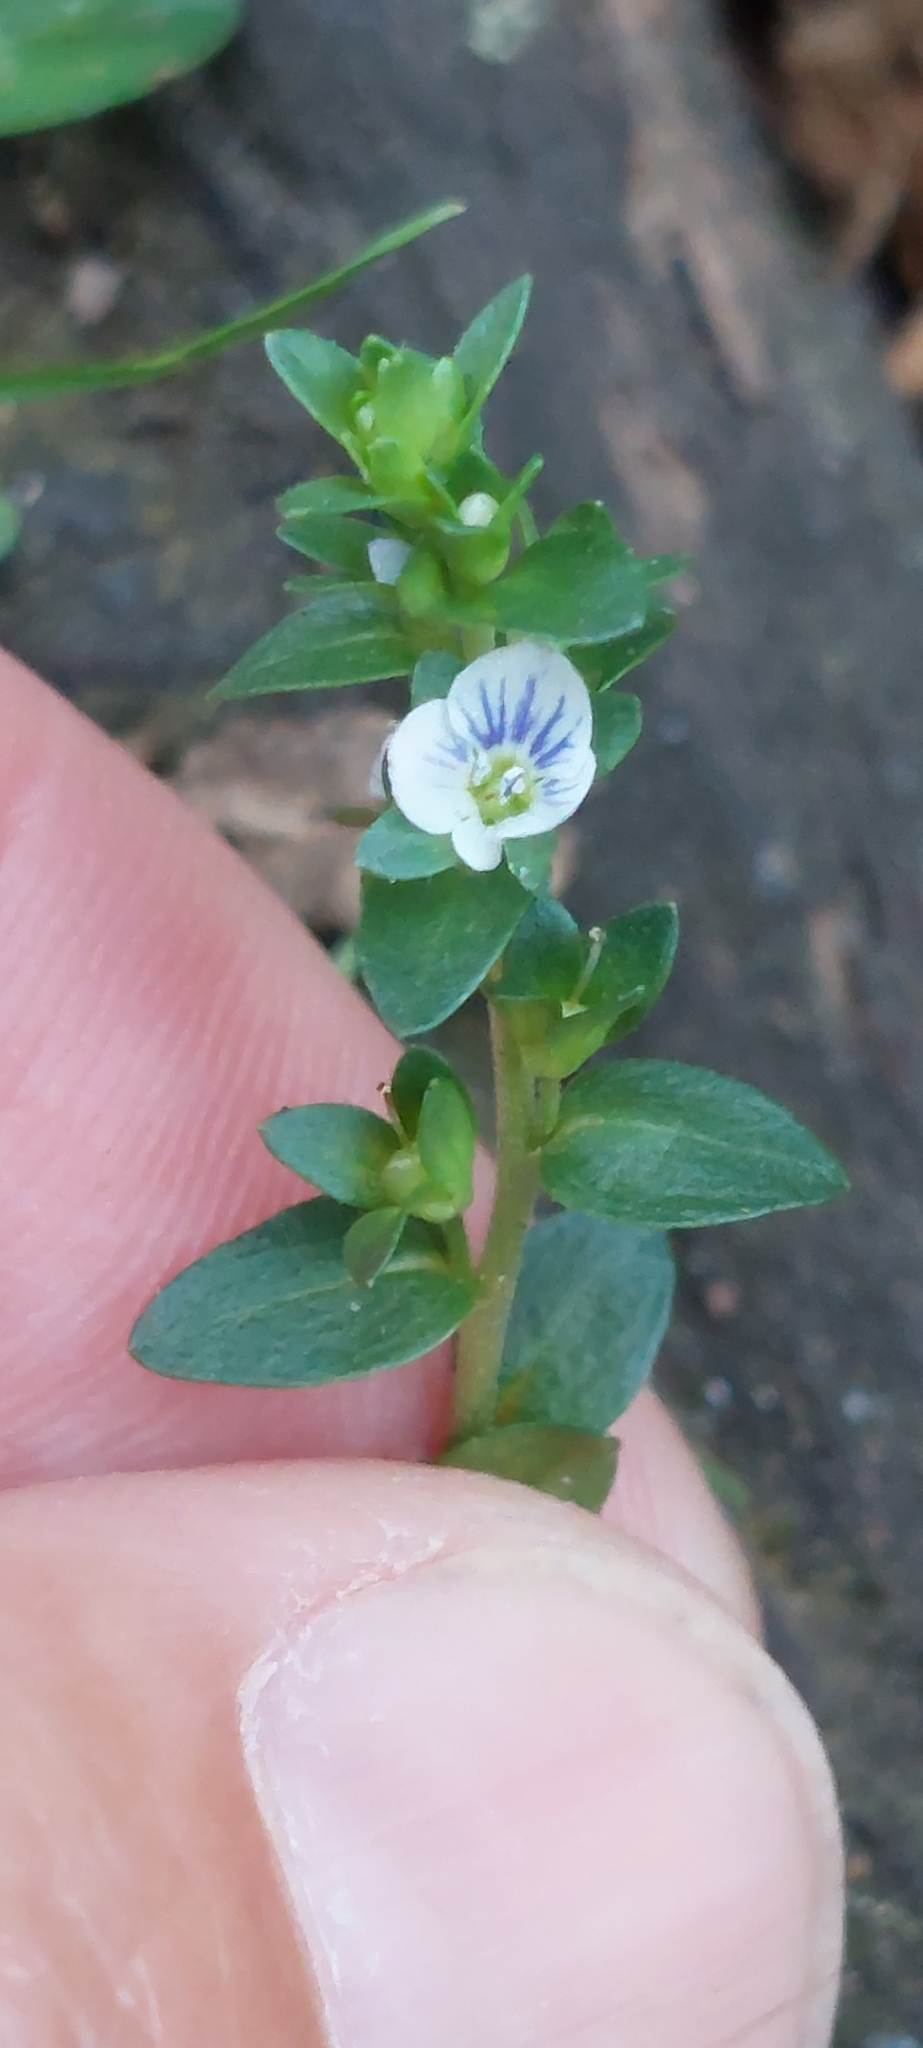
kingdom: Plantae
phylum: Tracheophyta
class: Magnoliopsida
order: Lamiales
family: Plantaginaceae
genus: Veronica
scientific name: Veronica serpyllifolia
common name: Thyme-leaved speedwell
